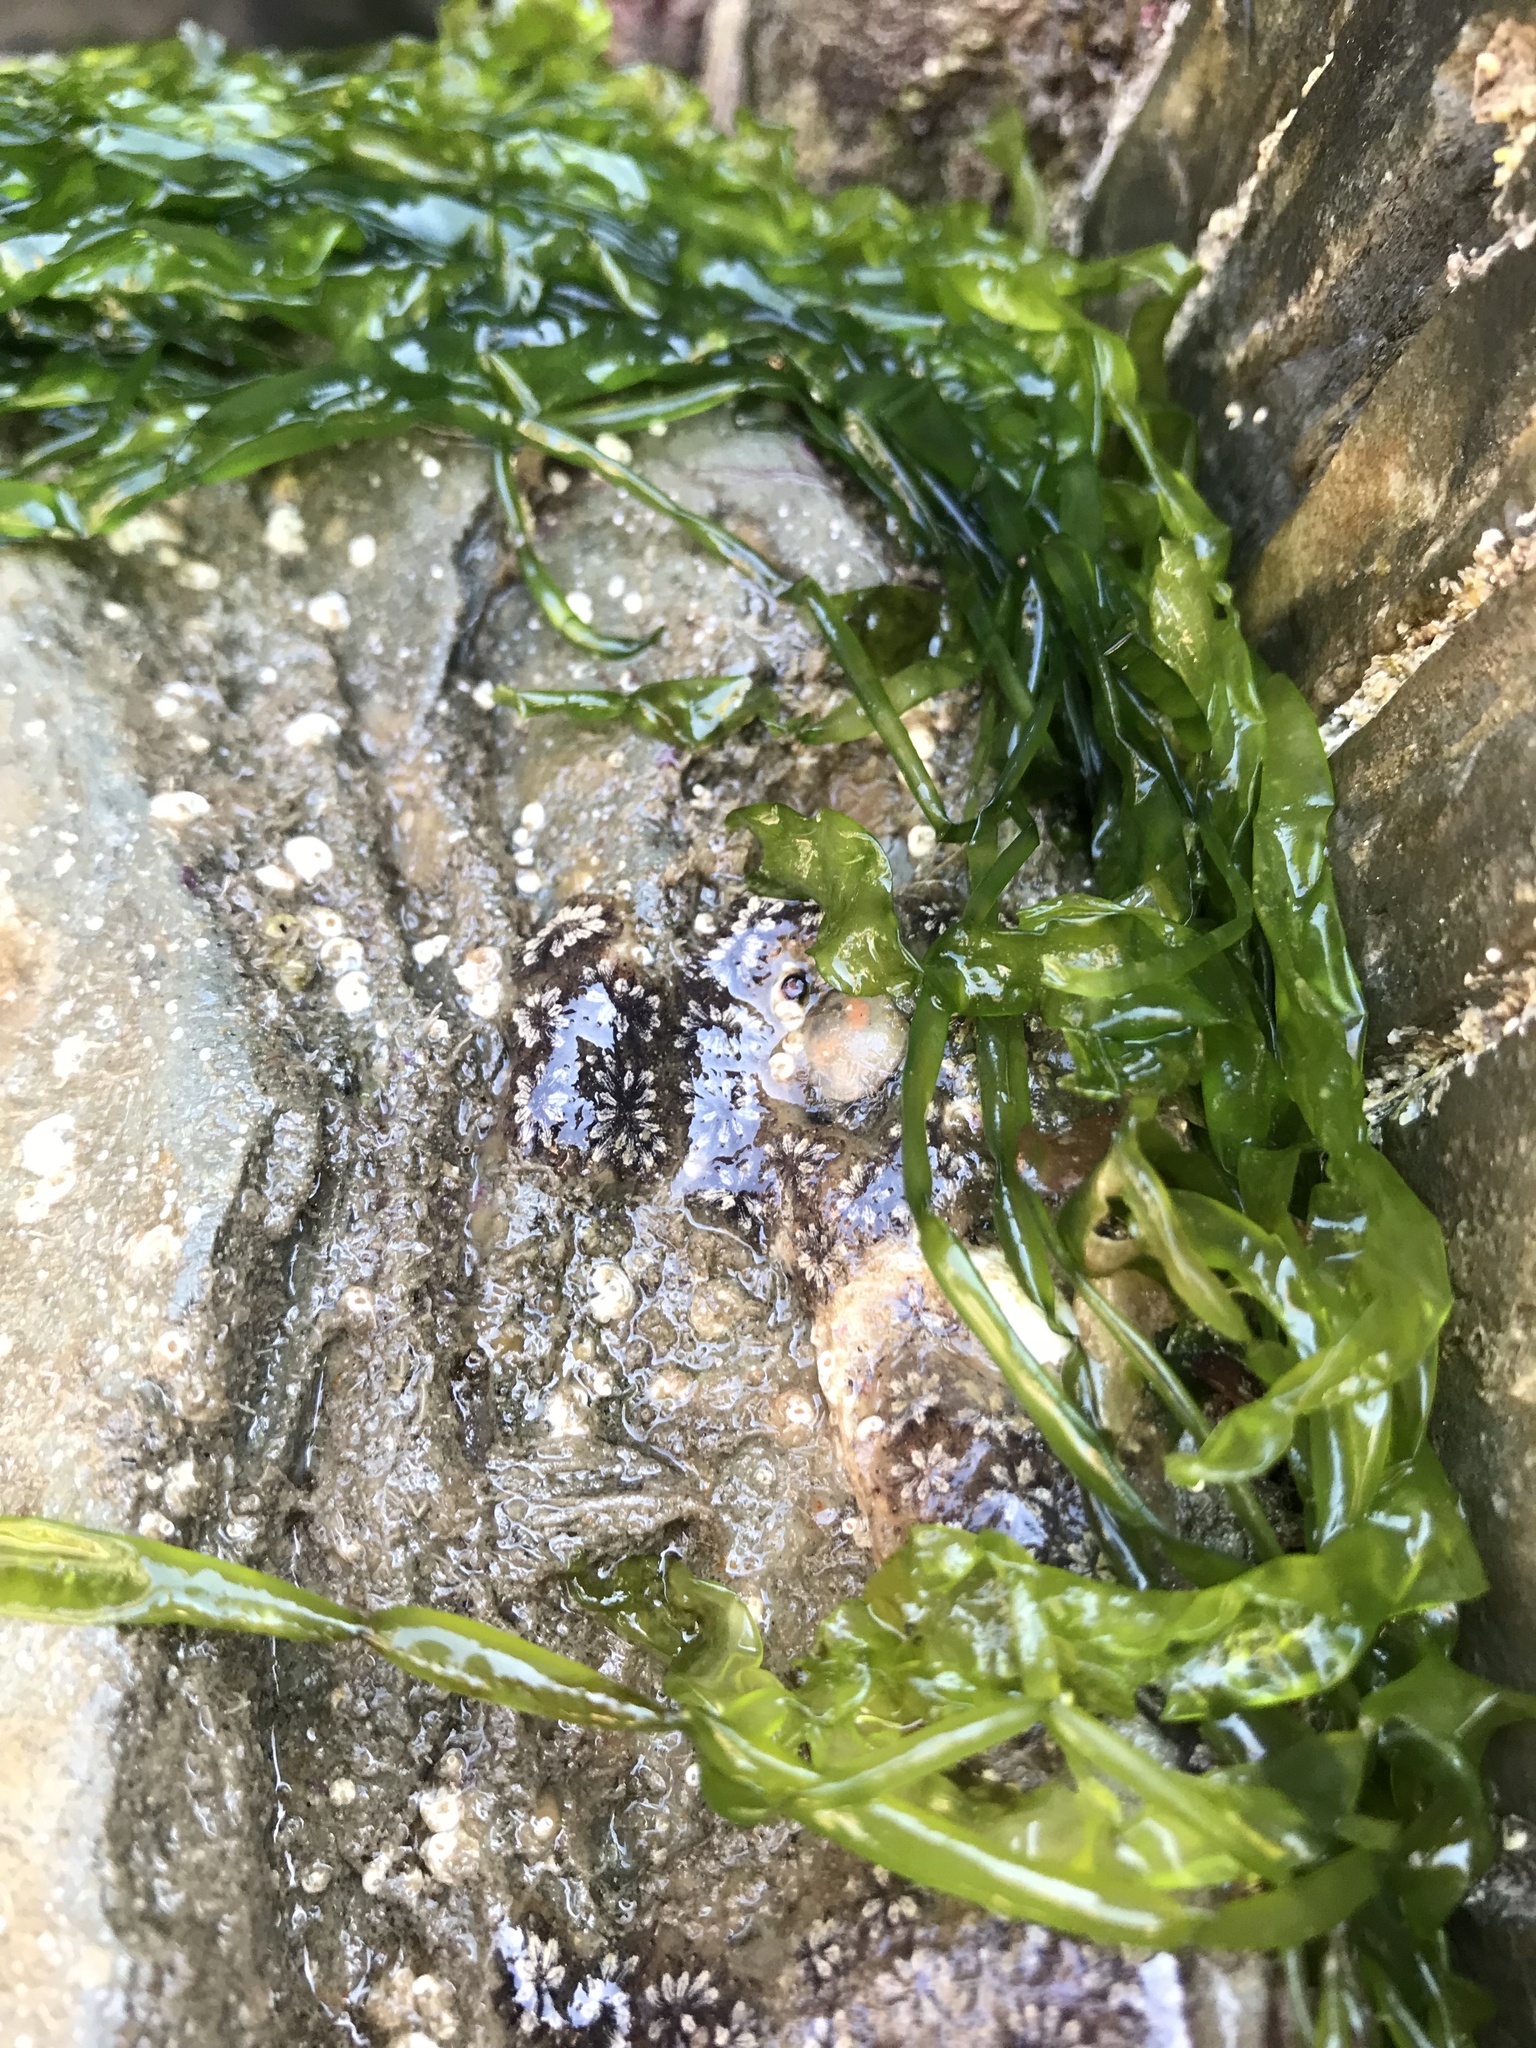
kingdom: Animalia
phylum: Chordata
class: Ascidiacea
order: Stolidobranchia
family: Styelidae
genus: Botryllus
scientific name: Botryllus schlosseri
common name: Golden star tunicate
